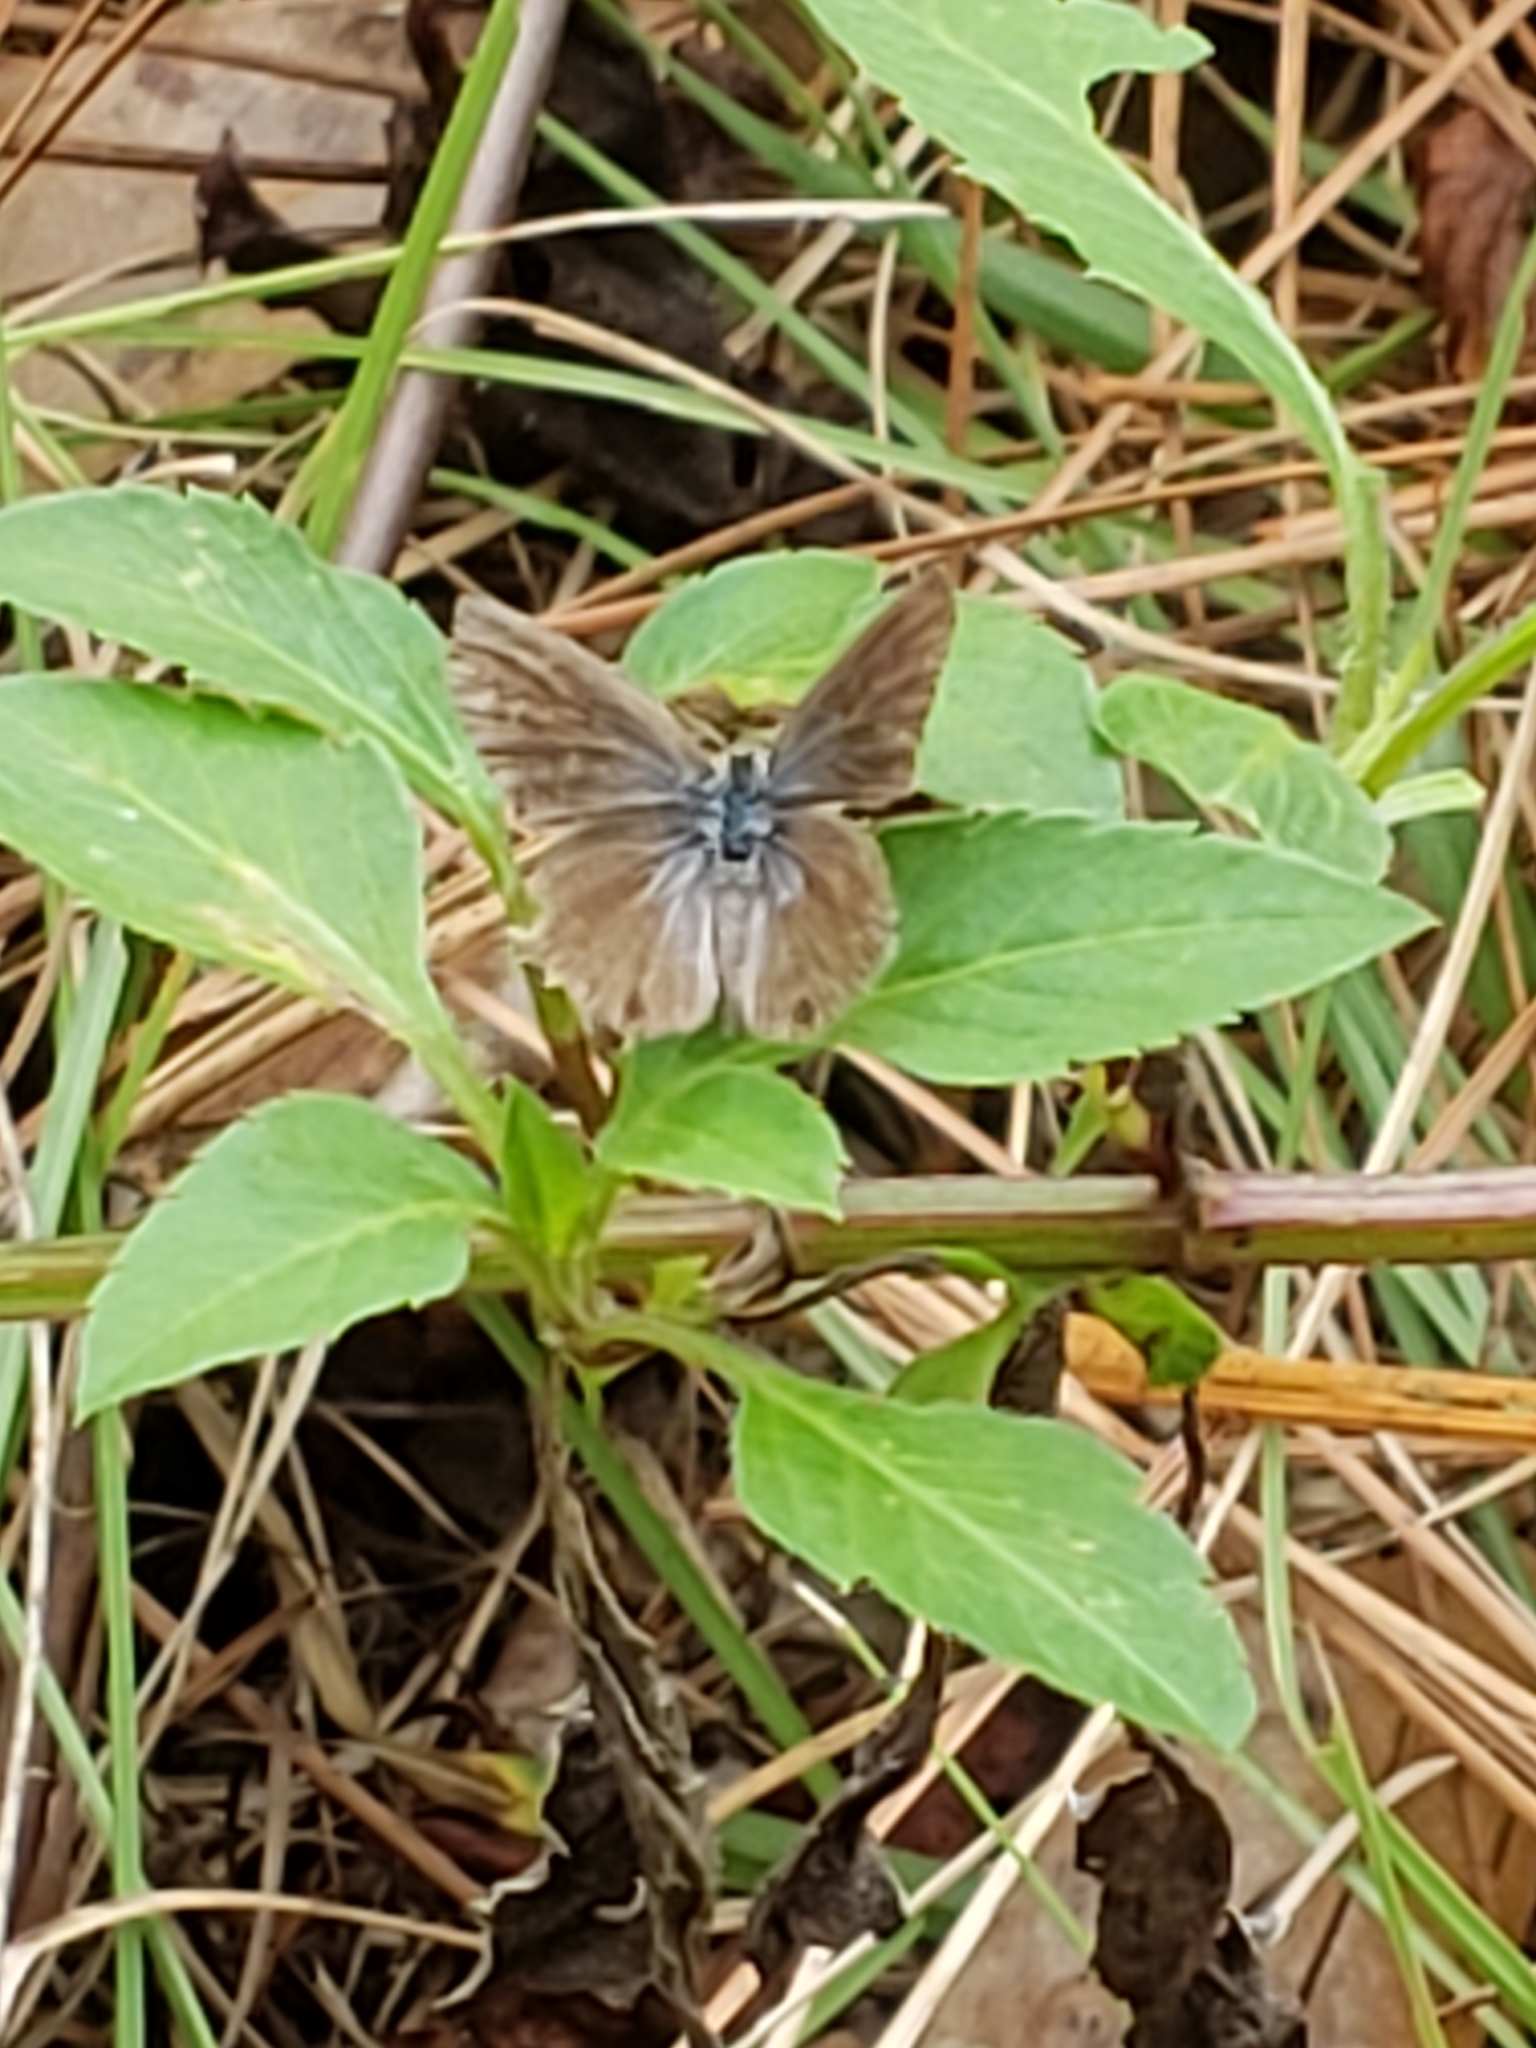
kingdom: Animalia
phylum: Arthropoda
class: Insecta
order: Lepidoptera
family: Lycaenidae
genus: Hemiargus
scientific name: Hemiargus ceraunus
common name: Ceraunus blue
